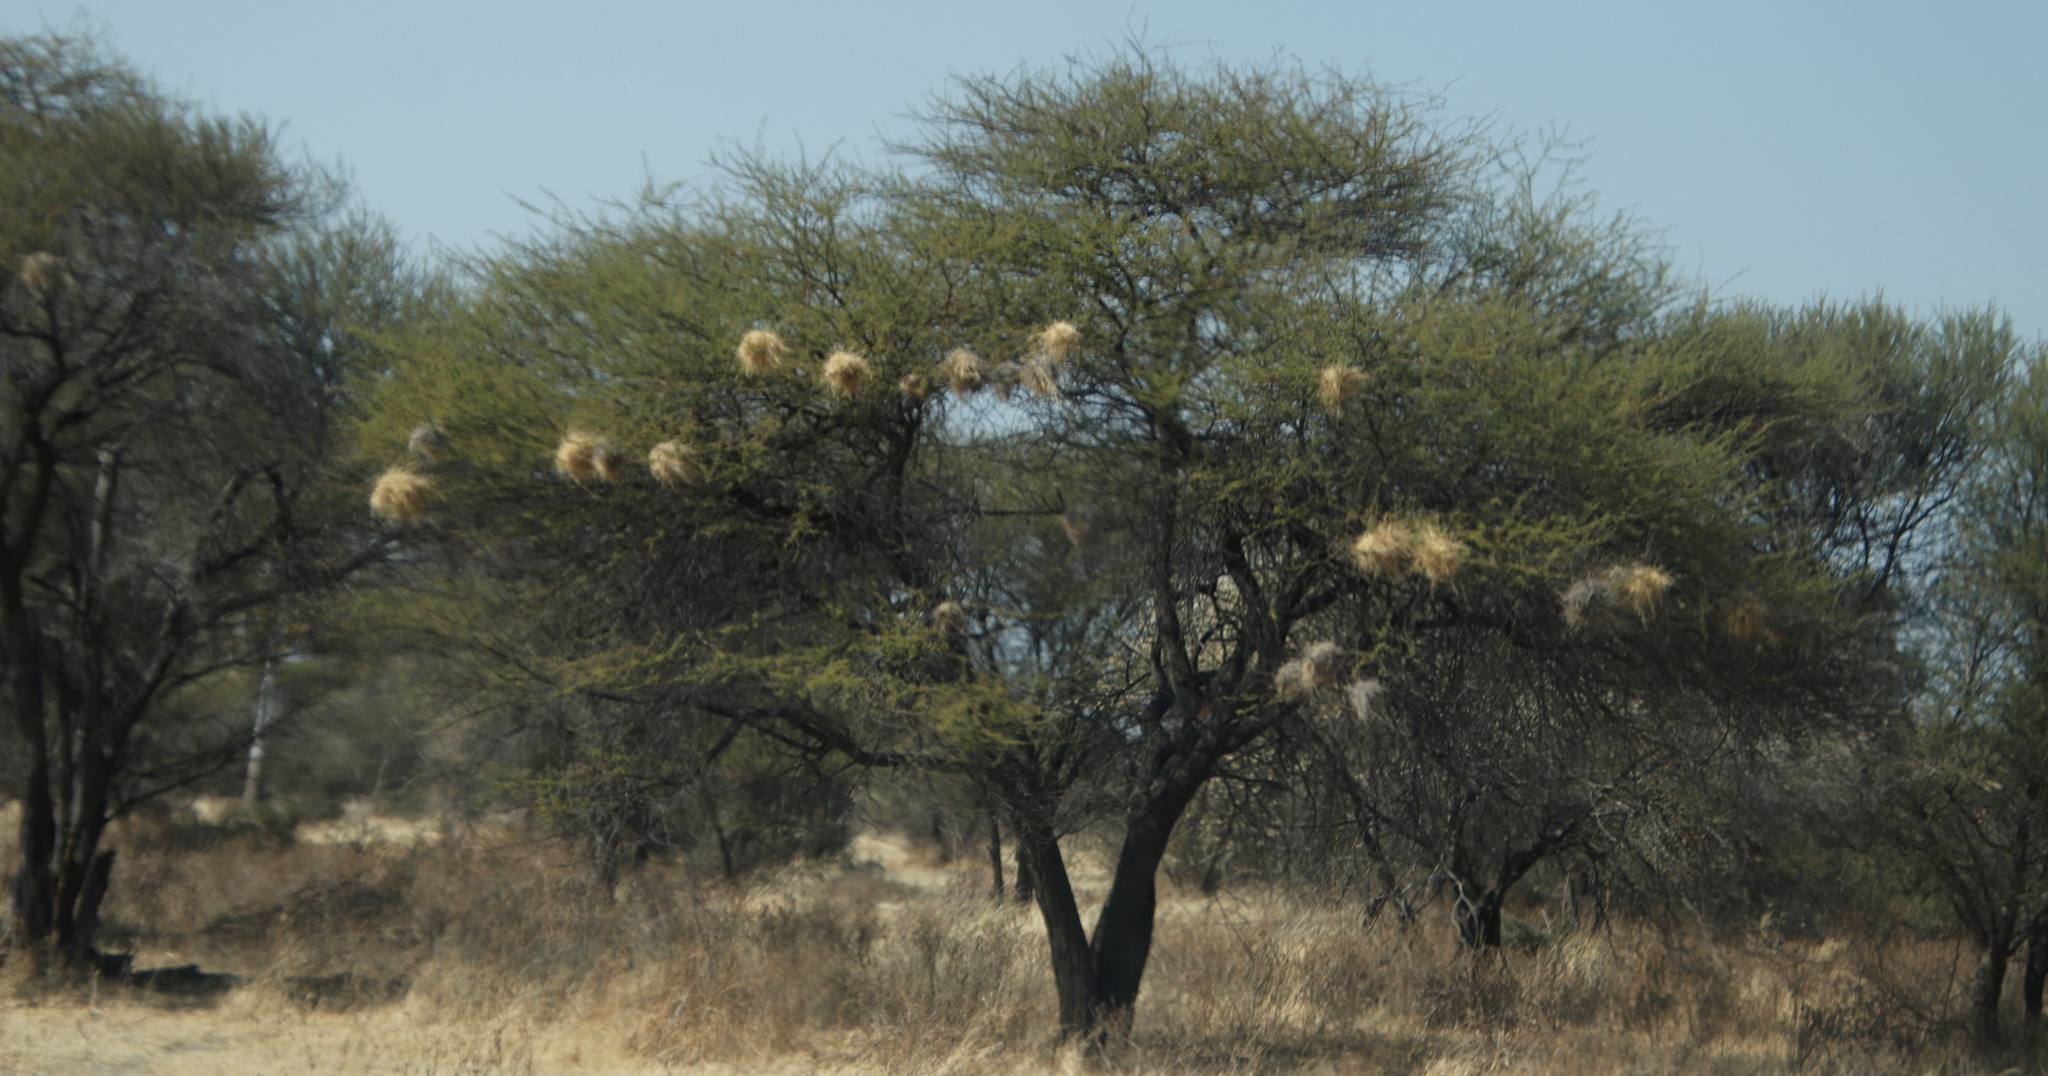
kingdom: Animalia
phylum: Chordata
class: Aves
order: Passeriformes
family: Passeridae
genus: Plocepasser
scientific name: Plocepasser mahali
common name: White-browed sparrow-weaver
